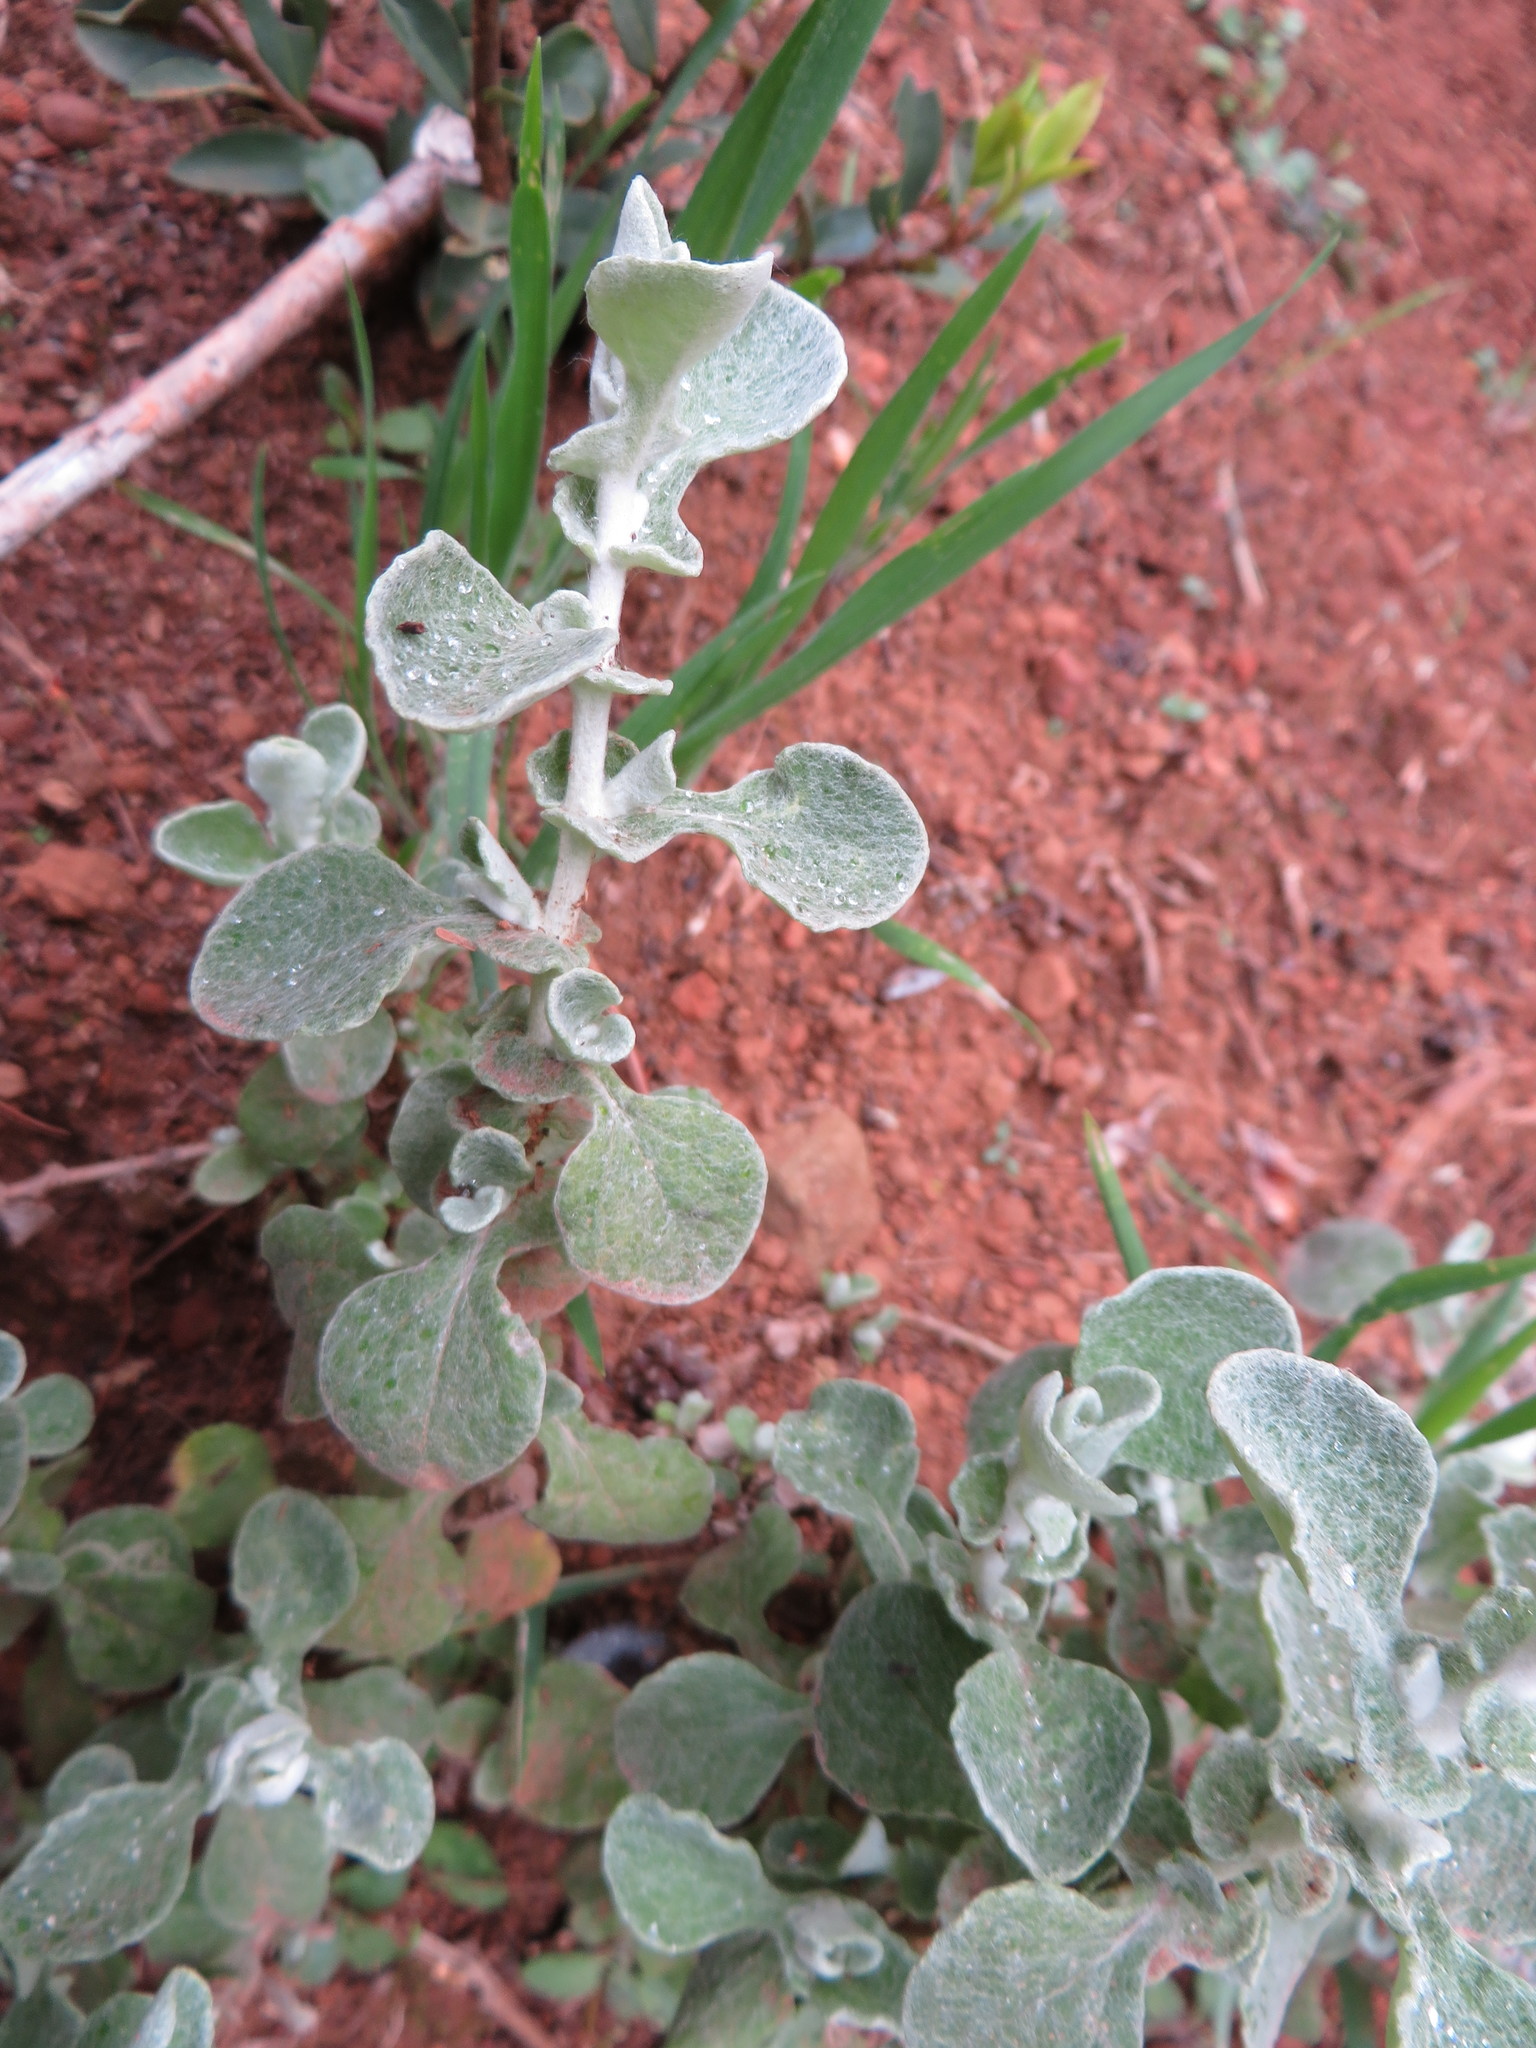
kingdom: Plantae
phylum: Tracheophyta
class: Magnoliopsida
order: Asterales
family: Asteraceae
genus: Helichrysum
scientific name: Helichrysum pandurifolium
